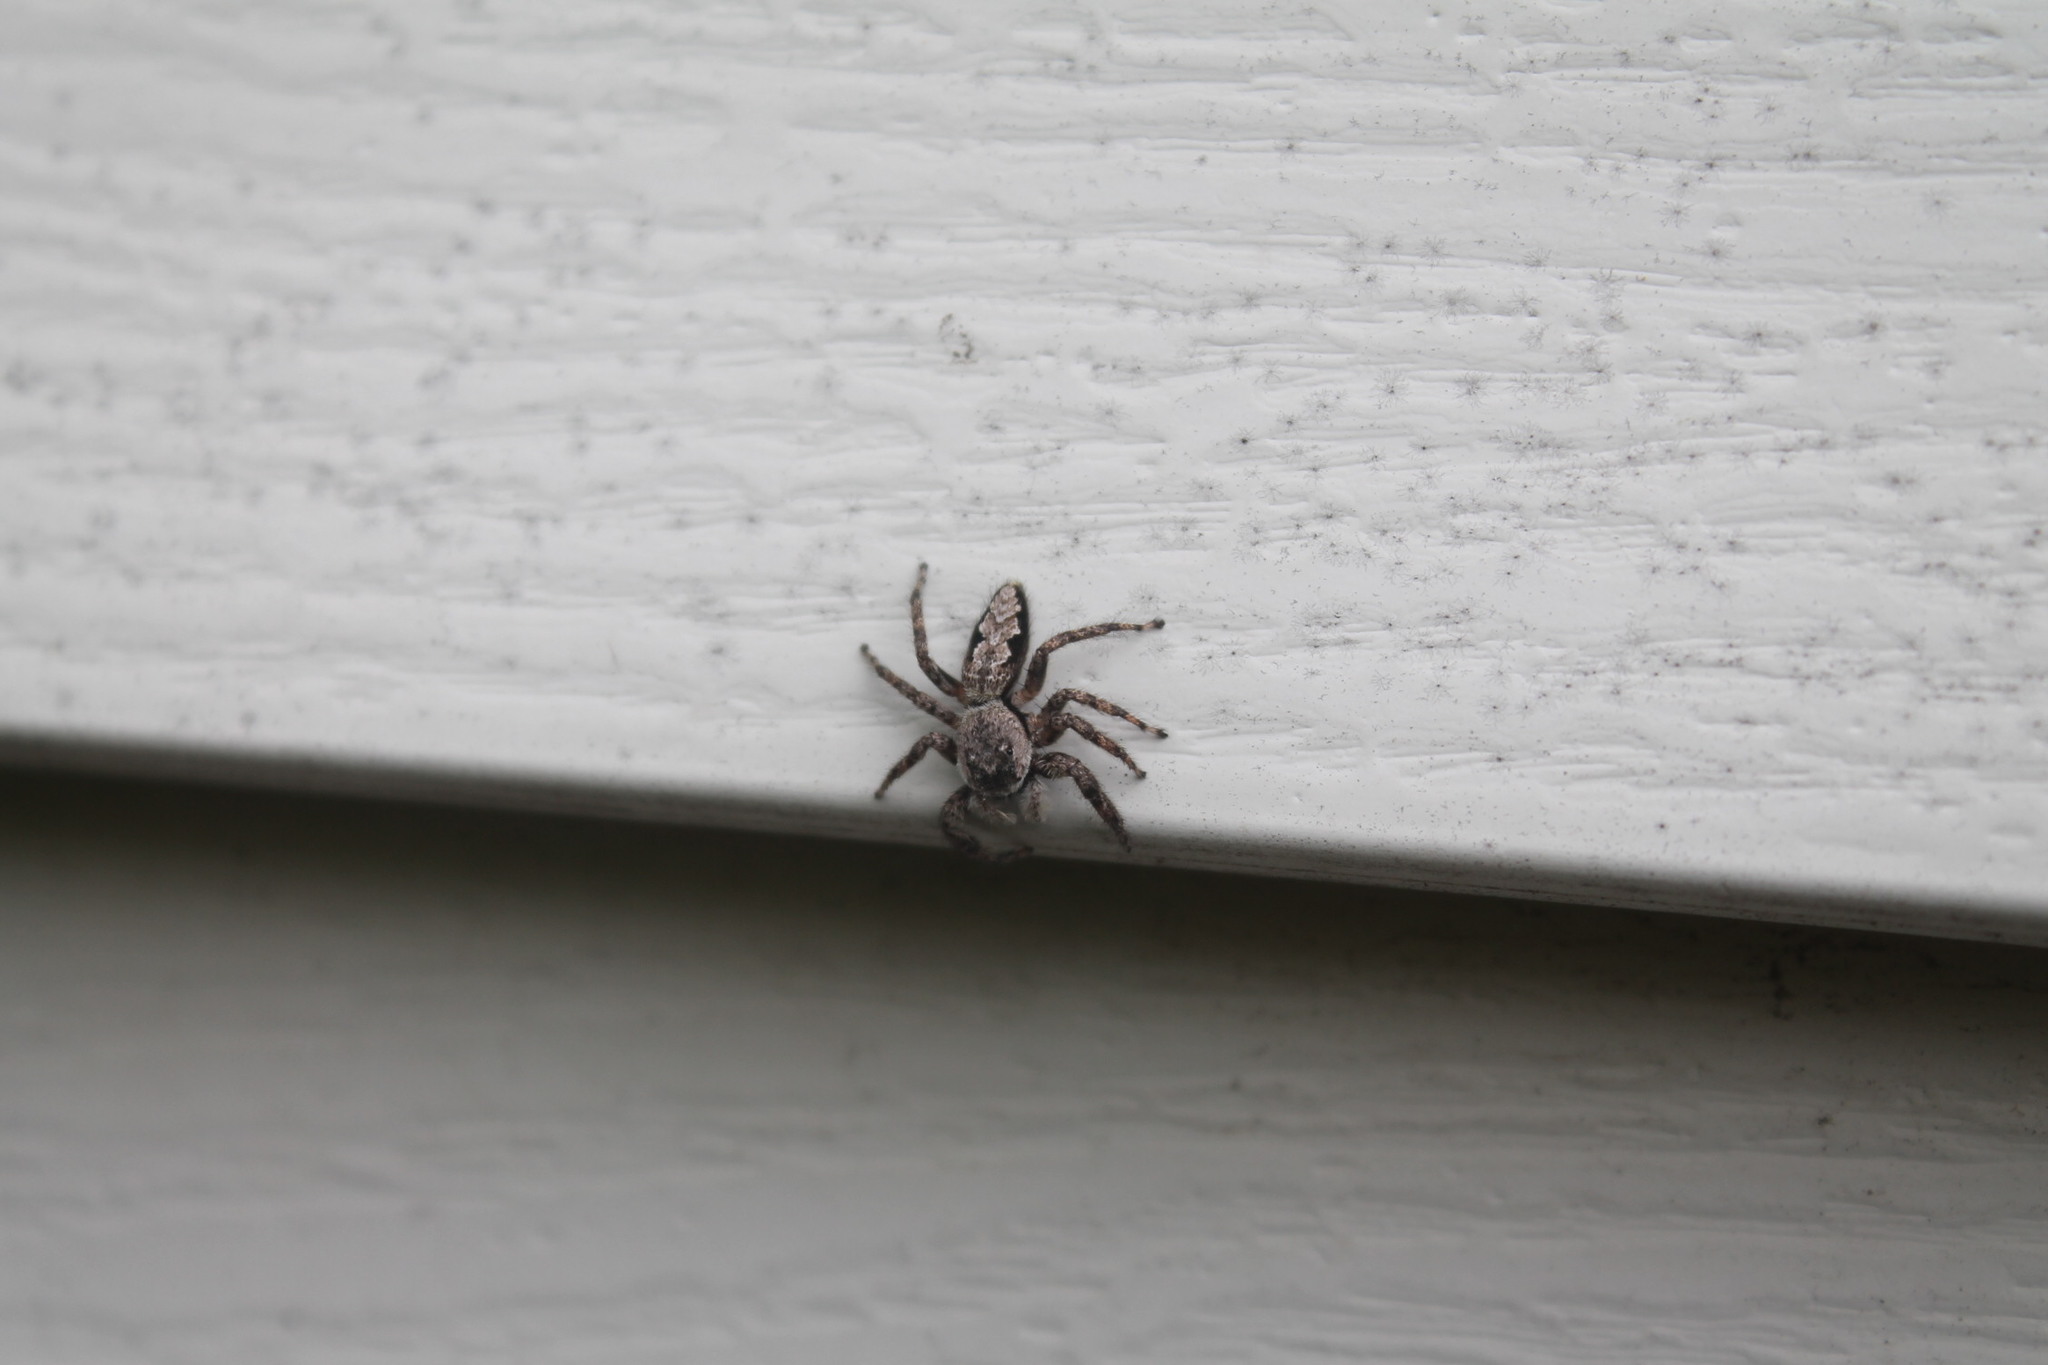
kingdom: Animalia
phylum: Arthropoda
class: Arachnida
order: Araneae
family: Salticidae
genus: Platycryptus
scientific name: Platycryptus undatus
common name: Tan jumping spider
